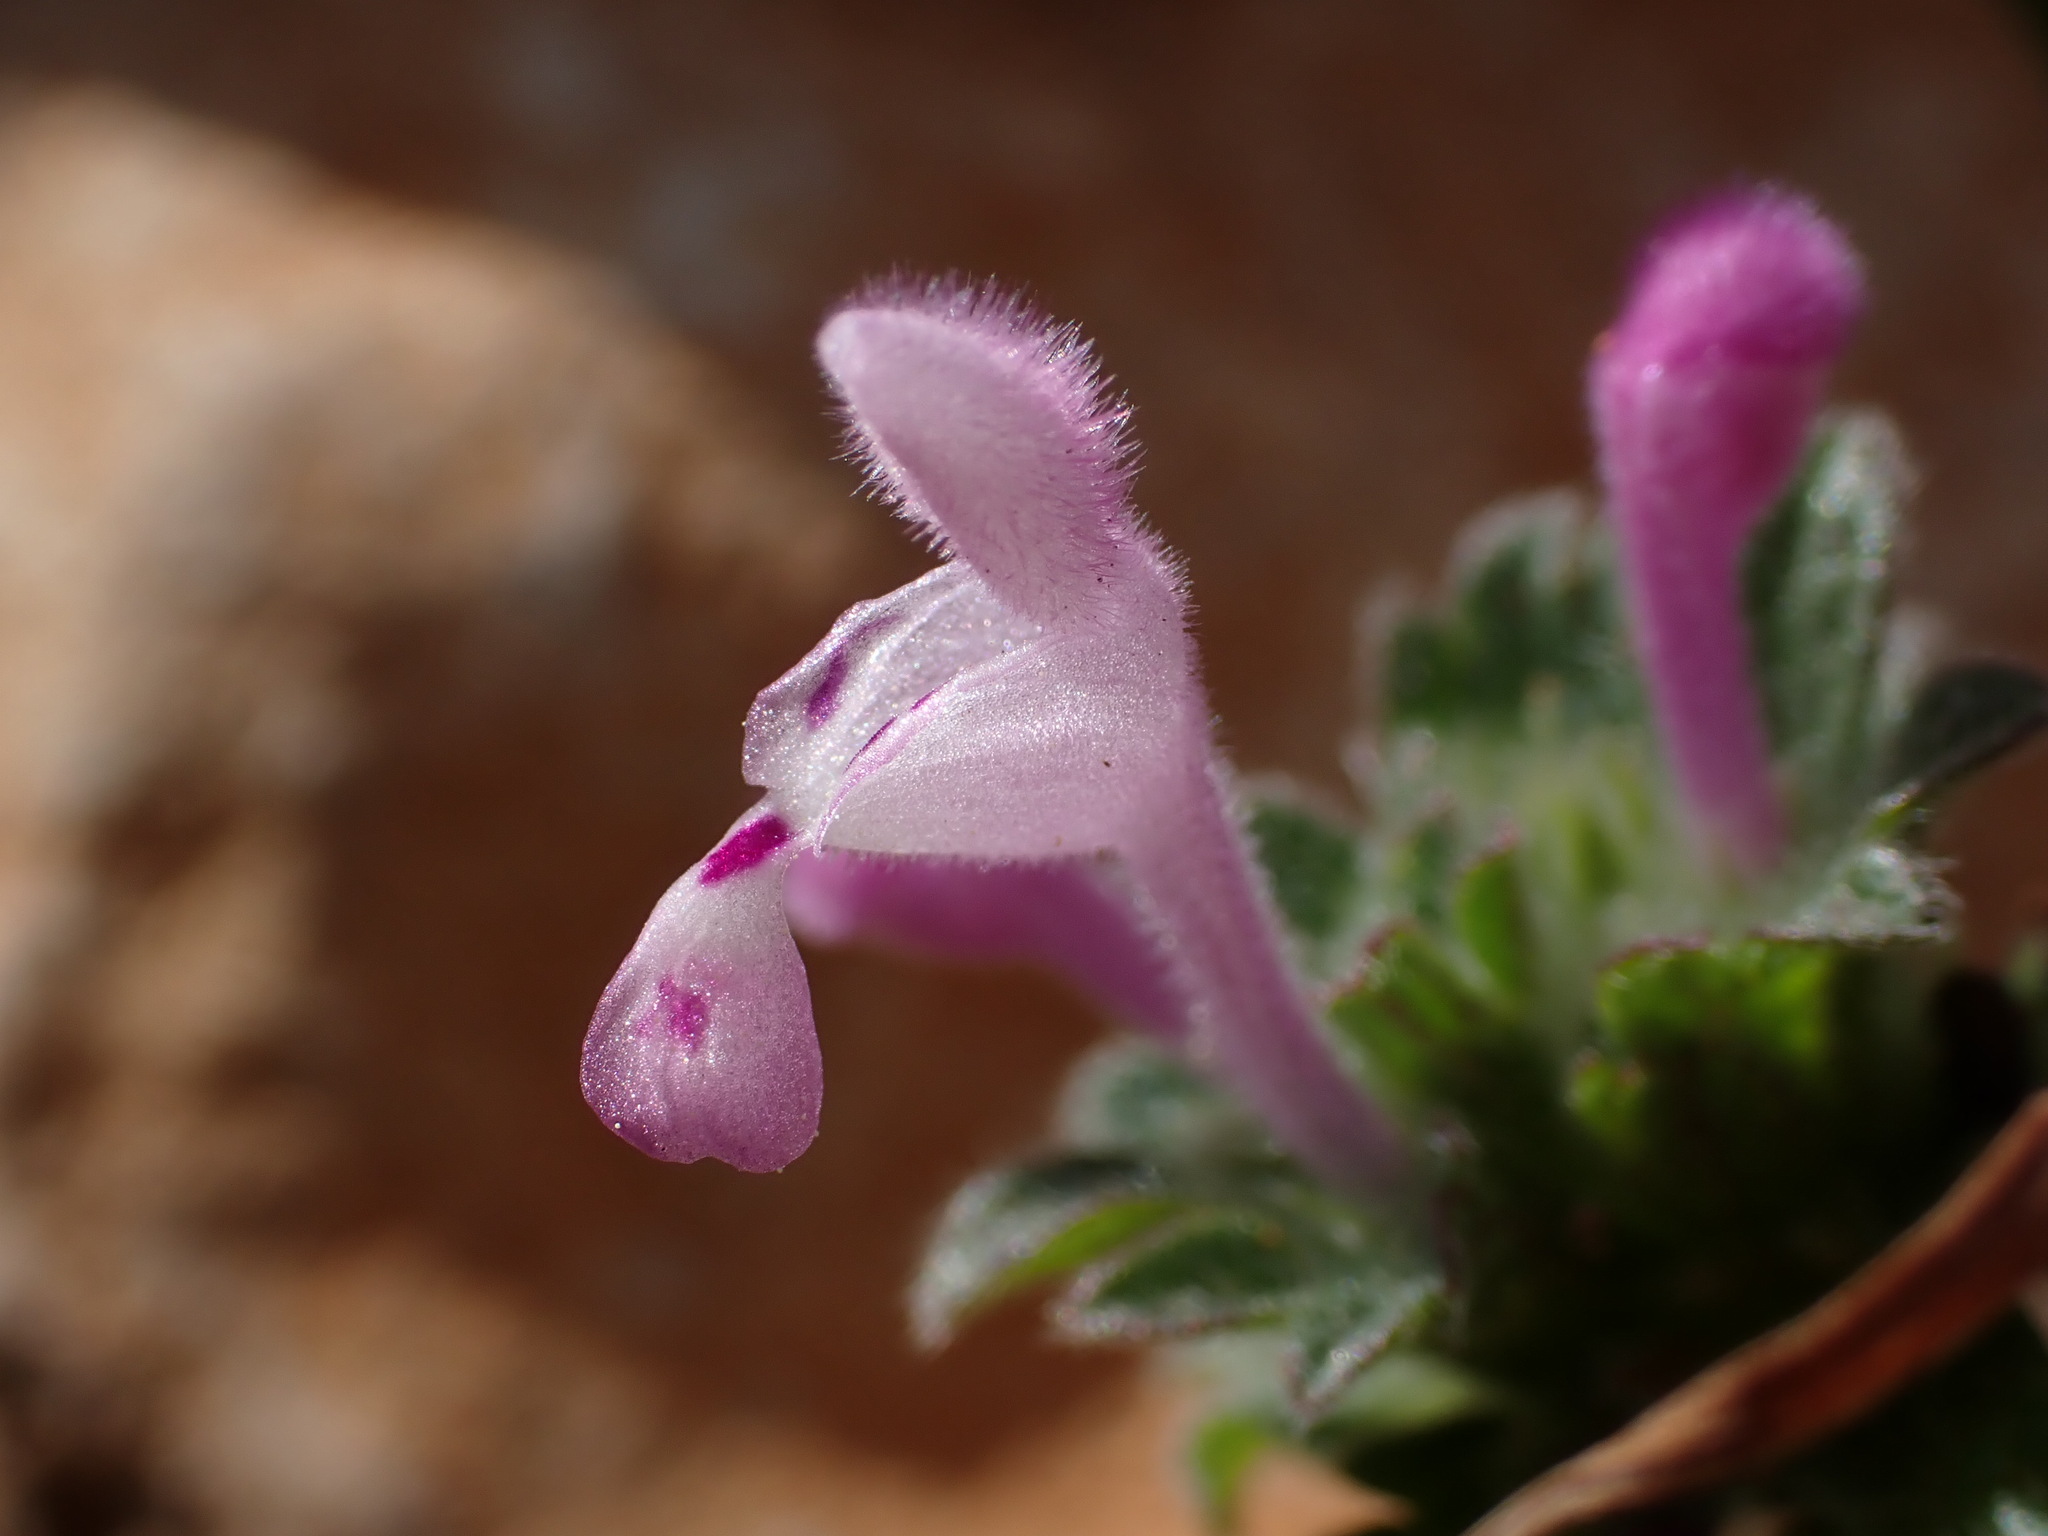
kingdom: Plantae
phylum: Tracheophyta
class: Magnoliopsida
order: Lamiales
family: Lamiaceae
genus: Lamium
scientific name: Lamium amplexicaule
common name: Henbit dead-nettle
